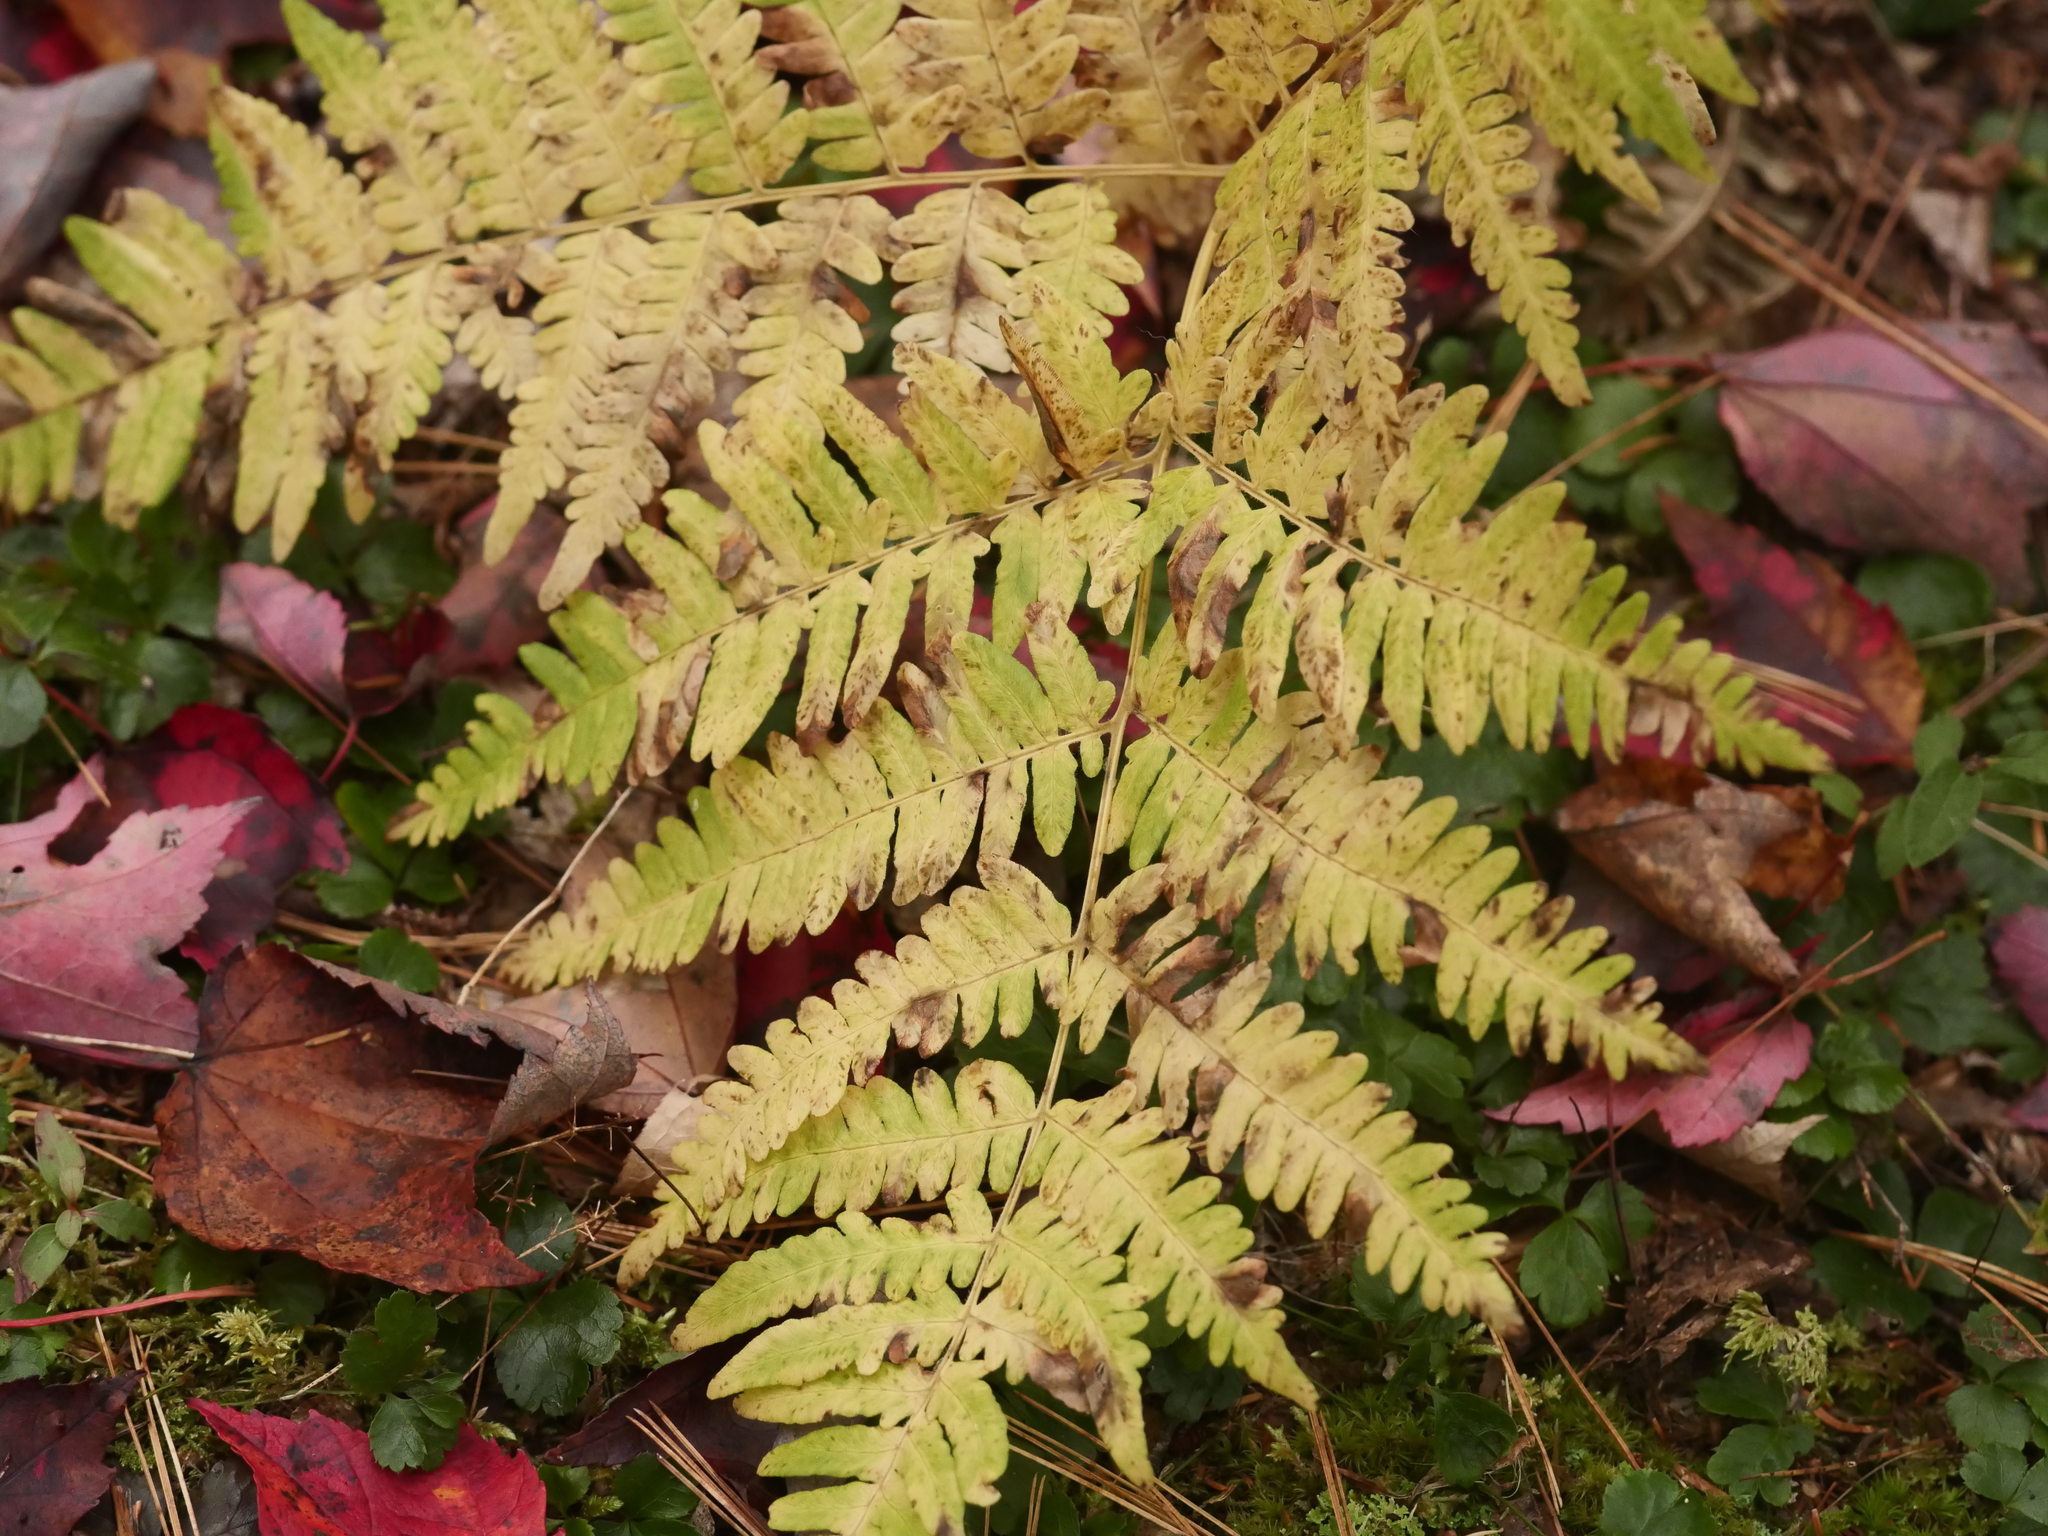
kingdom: Plantae
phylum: Tracheophyta
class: Polypodiopsida
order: Polypodiales
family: Dennstaedtiaceae
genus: Pteridium
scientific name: Pteridium aquilinum
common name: Bracken
